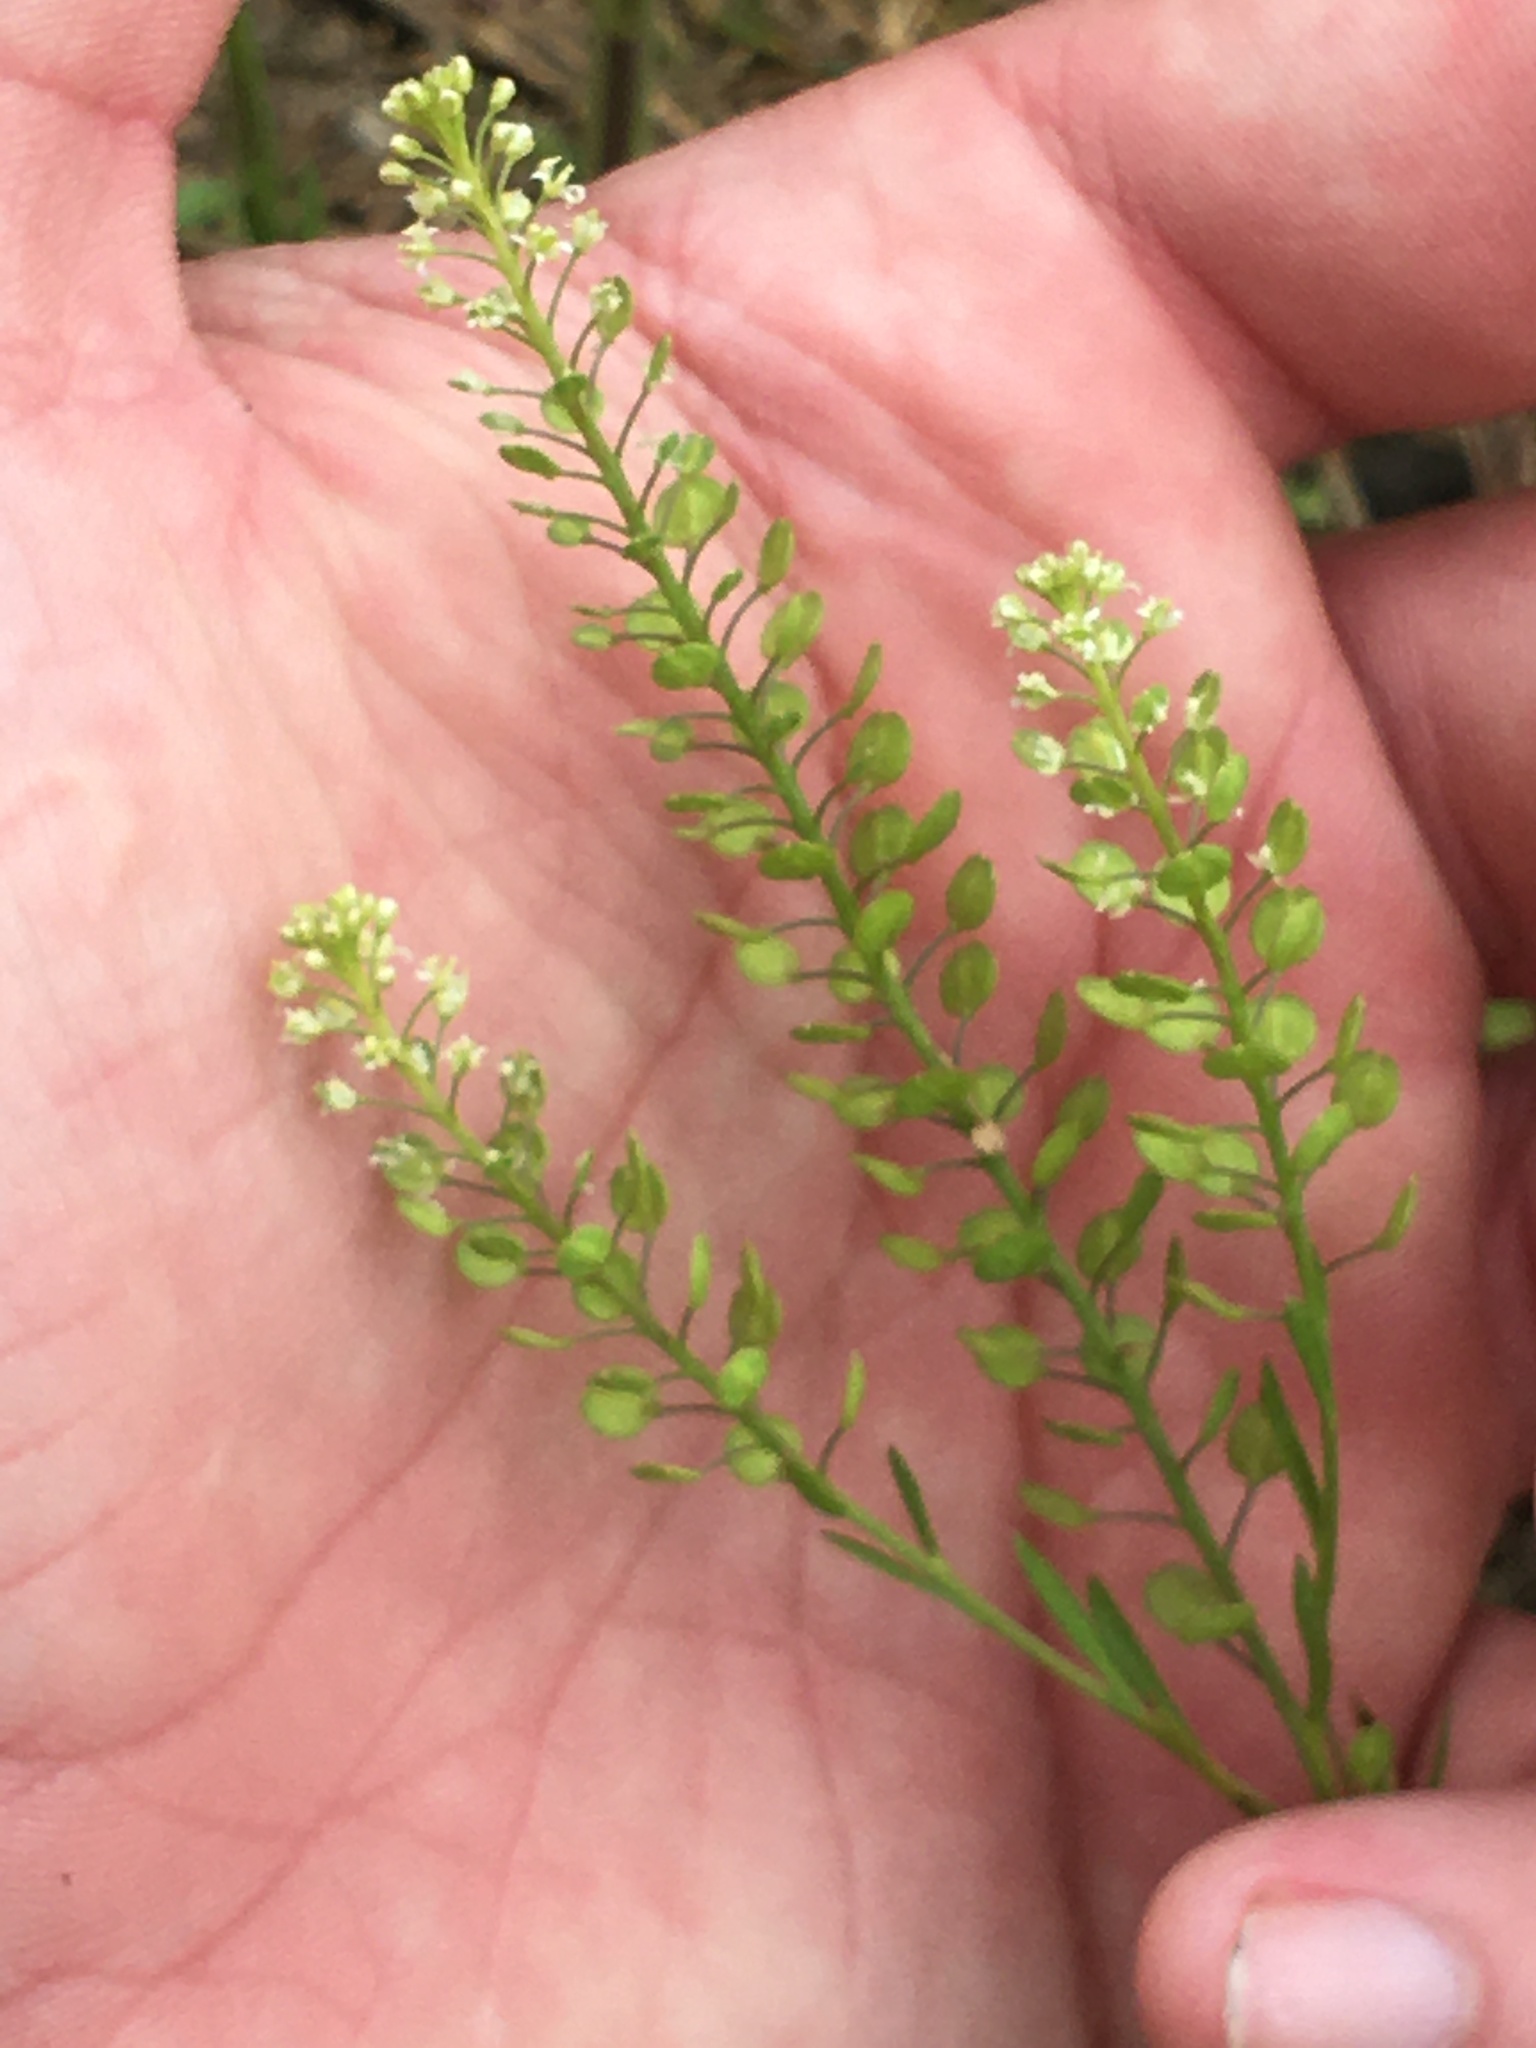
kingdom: Plantae
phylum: Tracheophyta
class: Magnoliopsida
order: Brassicales
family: Brassicaceae
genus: Lepidium
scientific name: Lepidium virginicum
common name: Least pepperwort
